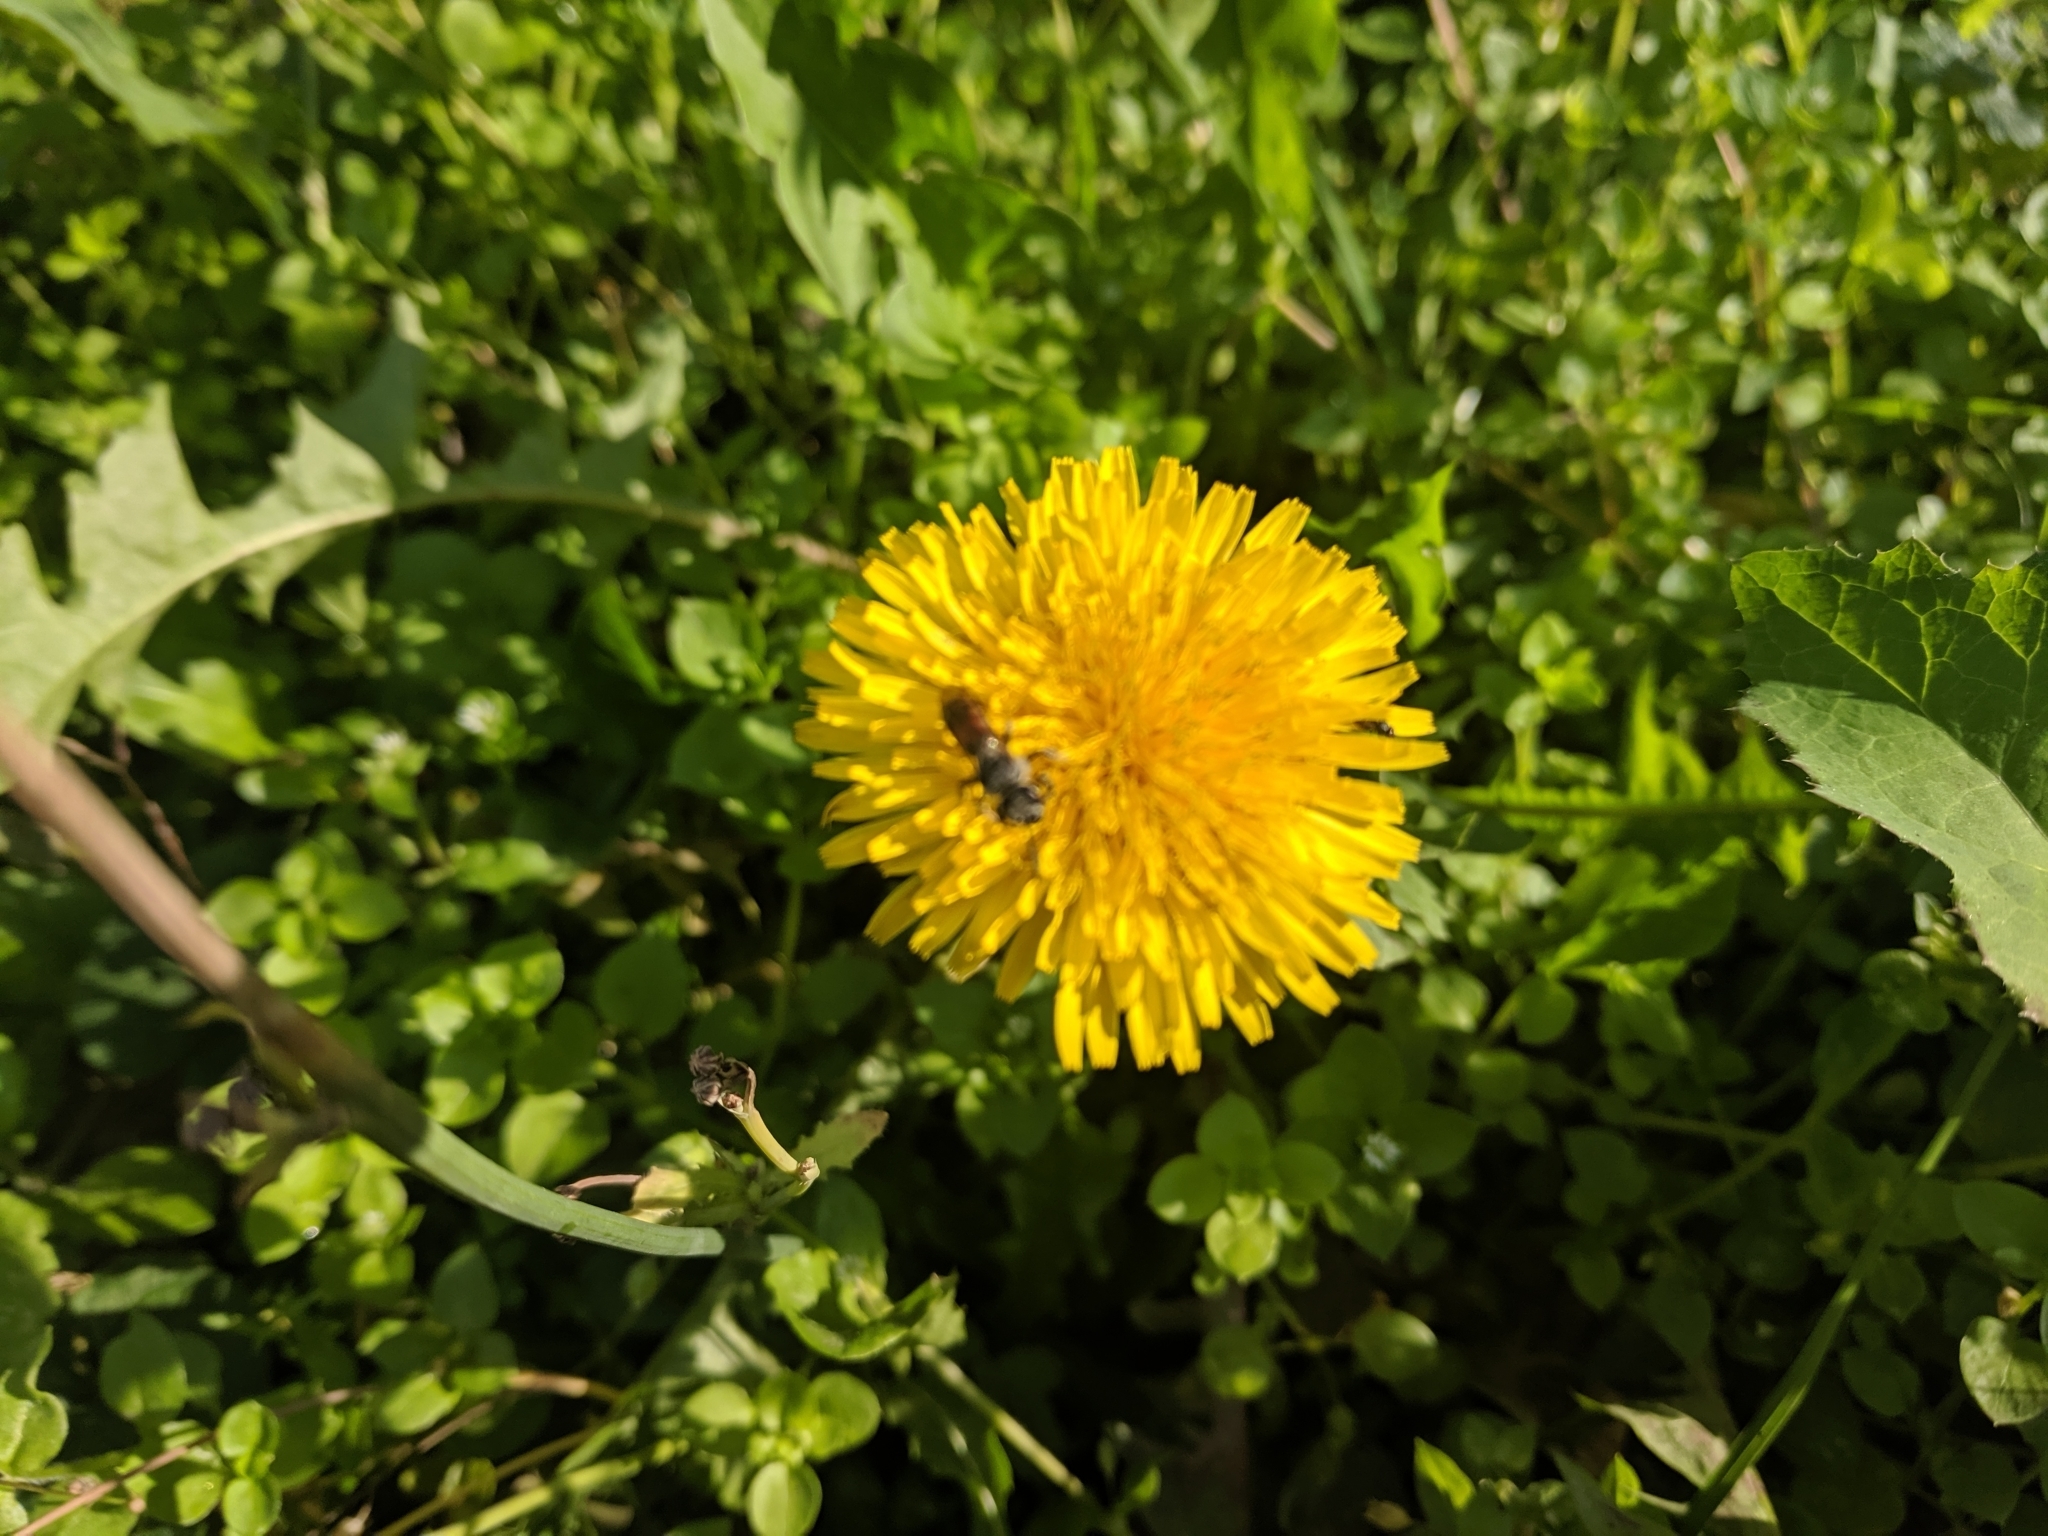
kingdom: Plantae
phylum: Tracheophyta
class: Magnoliopsida
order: Asterales
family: Asteraceae
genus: Taraxacum
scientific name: Taraxacum officinale
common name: Common dandelion
